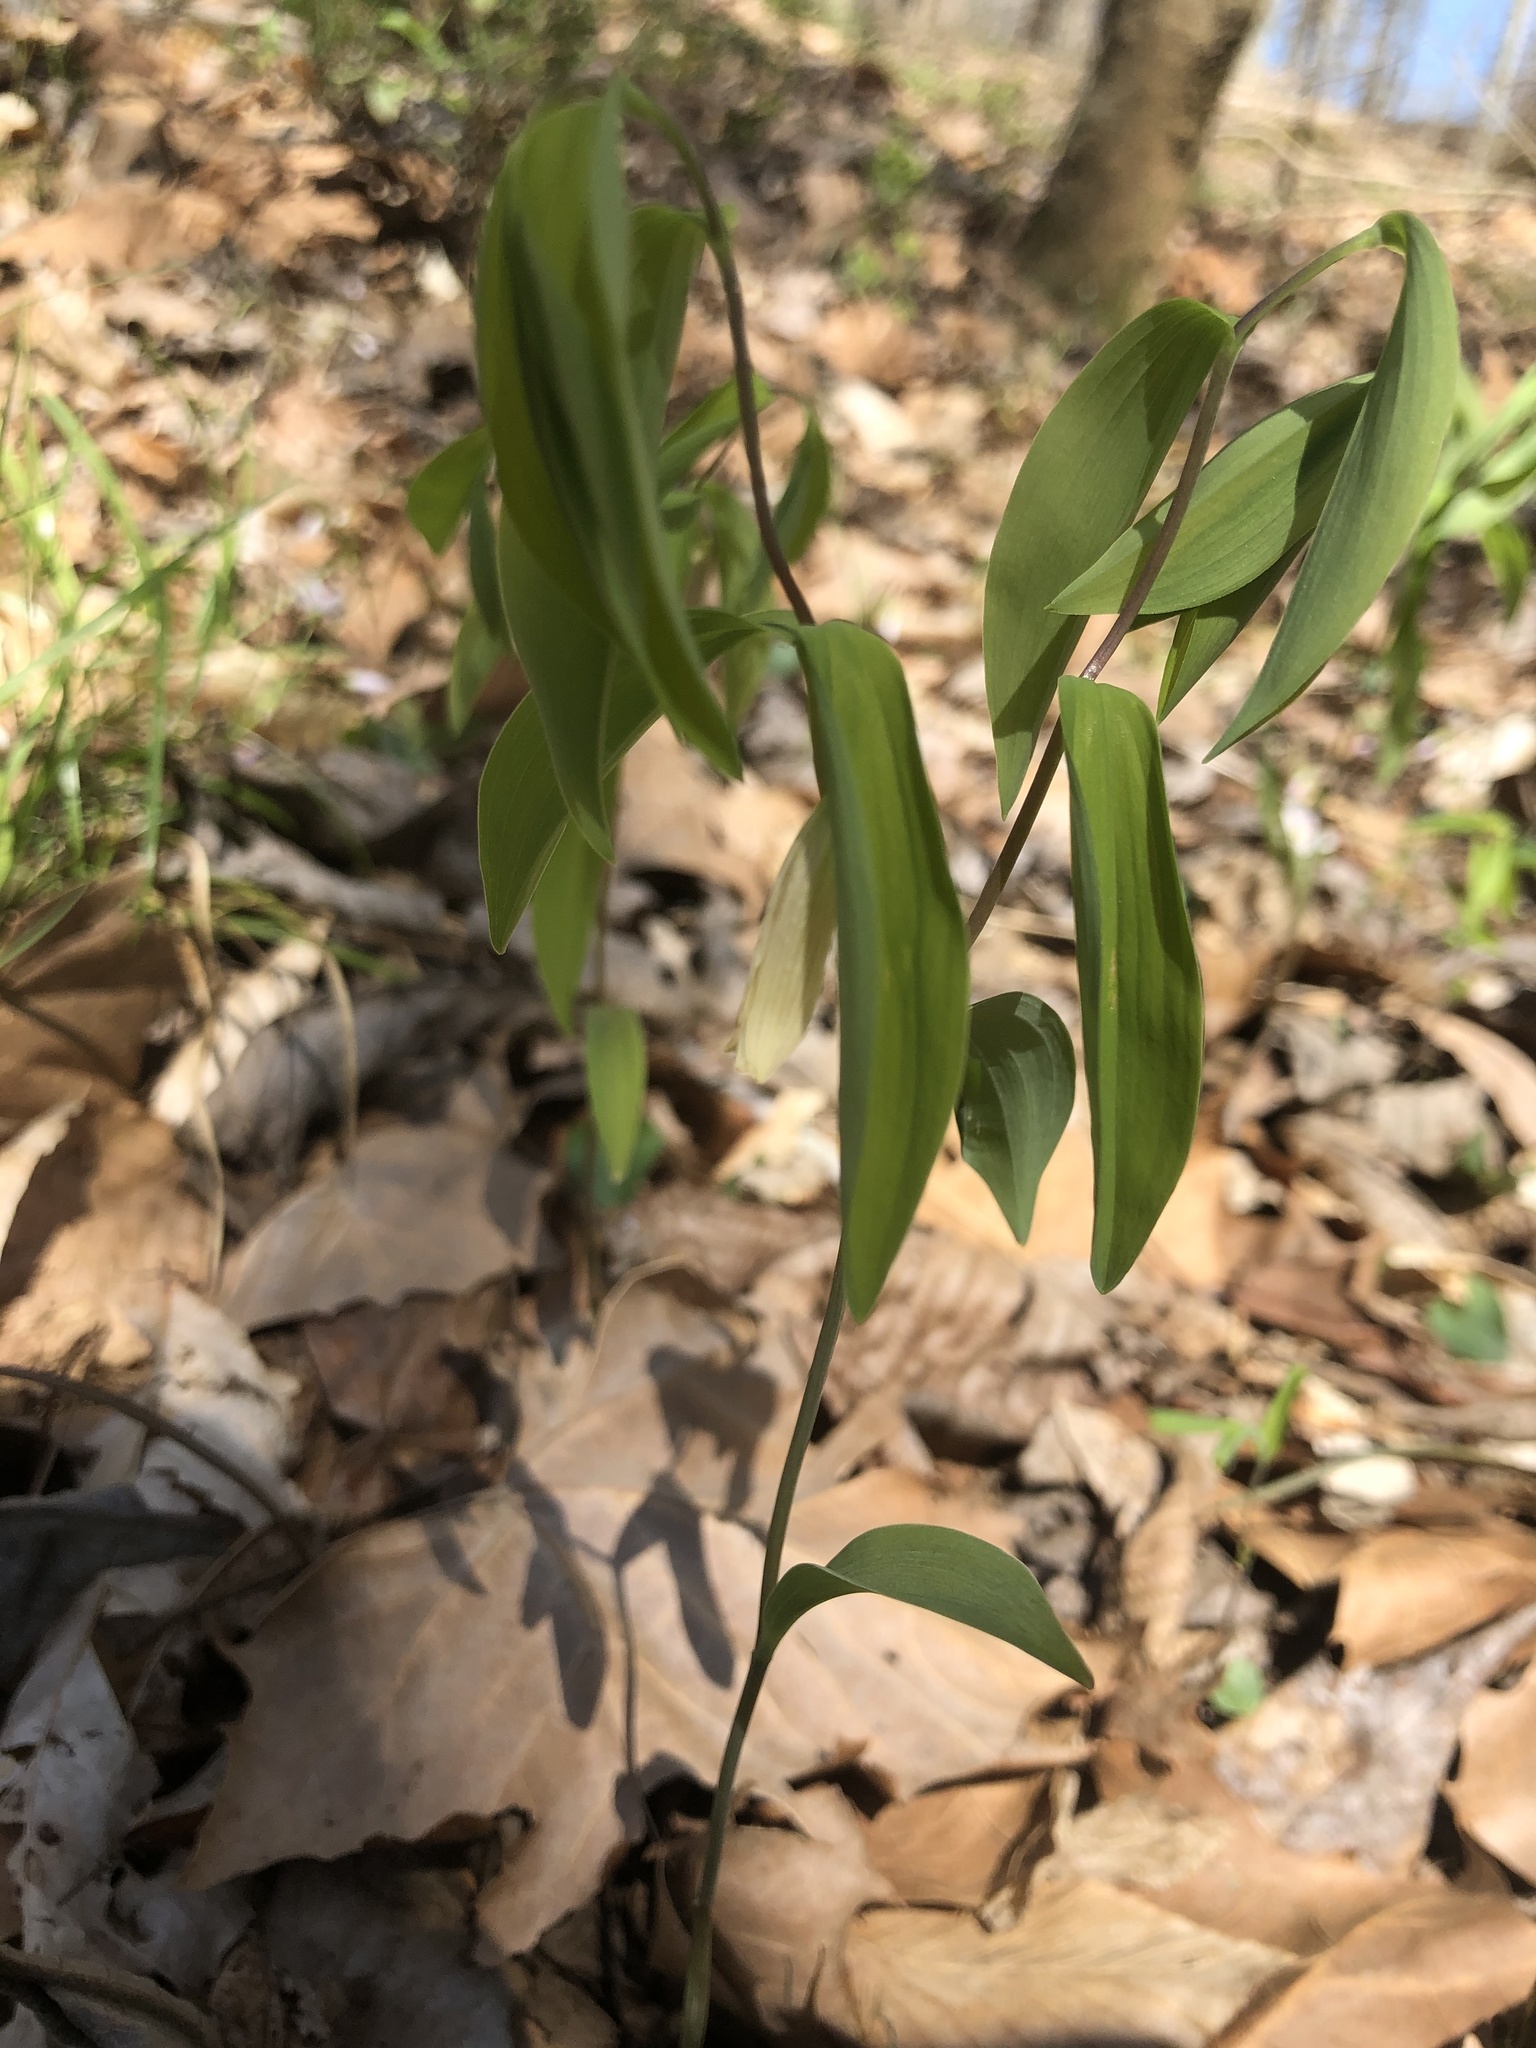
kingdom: Plantae
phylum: Tracheophyta
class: Liliopsida
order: Liliales
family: Colchicaceae
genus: Uvularia
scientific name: Uvularia sessilifolia
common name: Straw-lily
